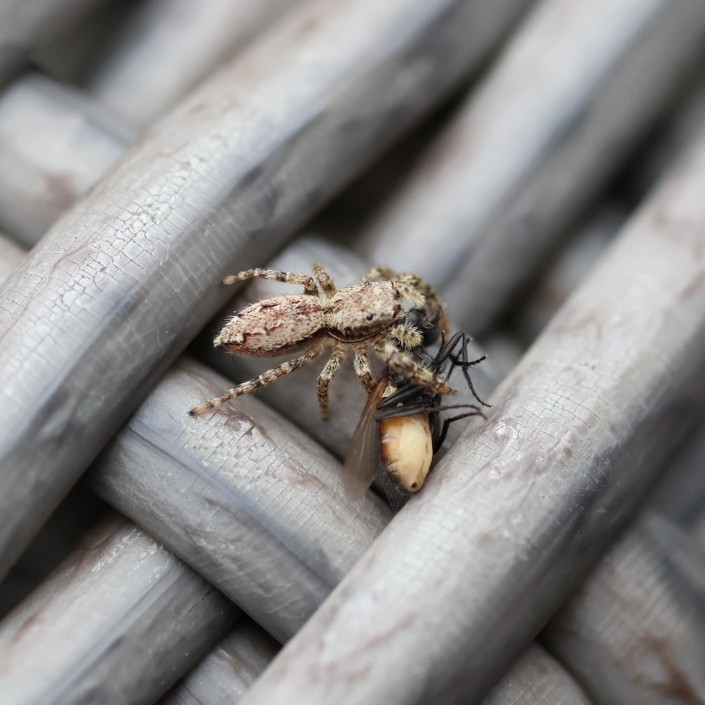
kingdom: Animalia
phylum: Arthropoda
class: Arachnida
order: Araneae
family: Salticidae
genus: Marpissa
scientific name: Marpissa muscosa
